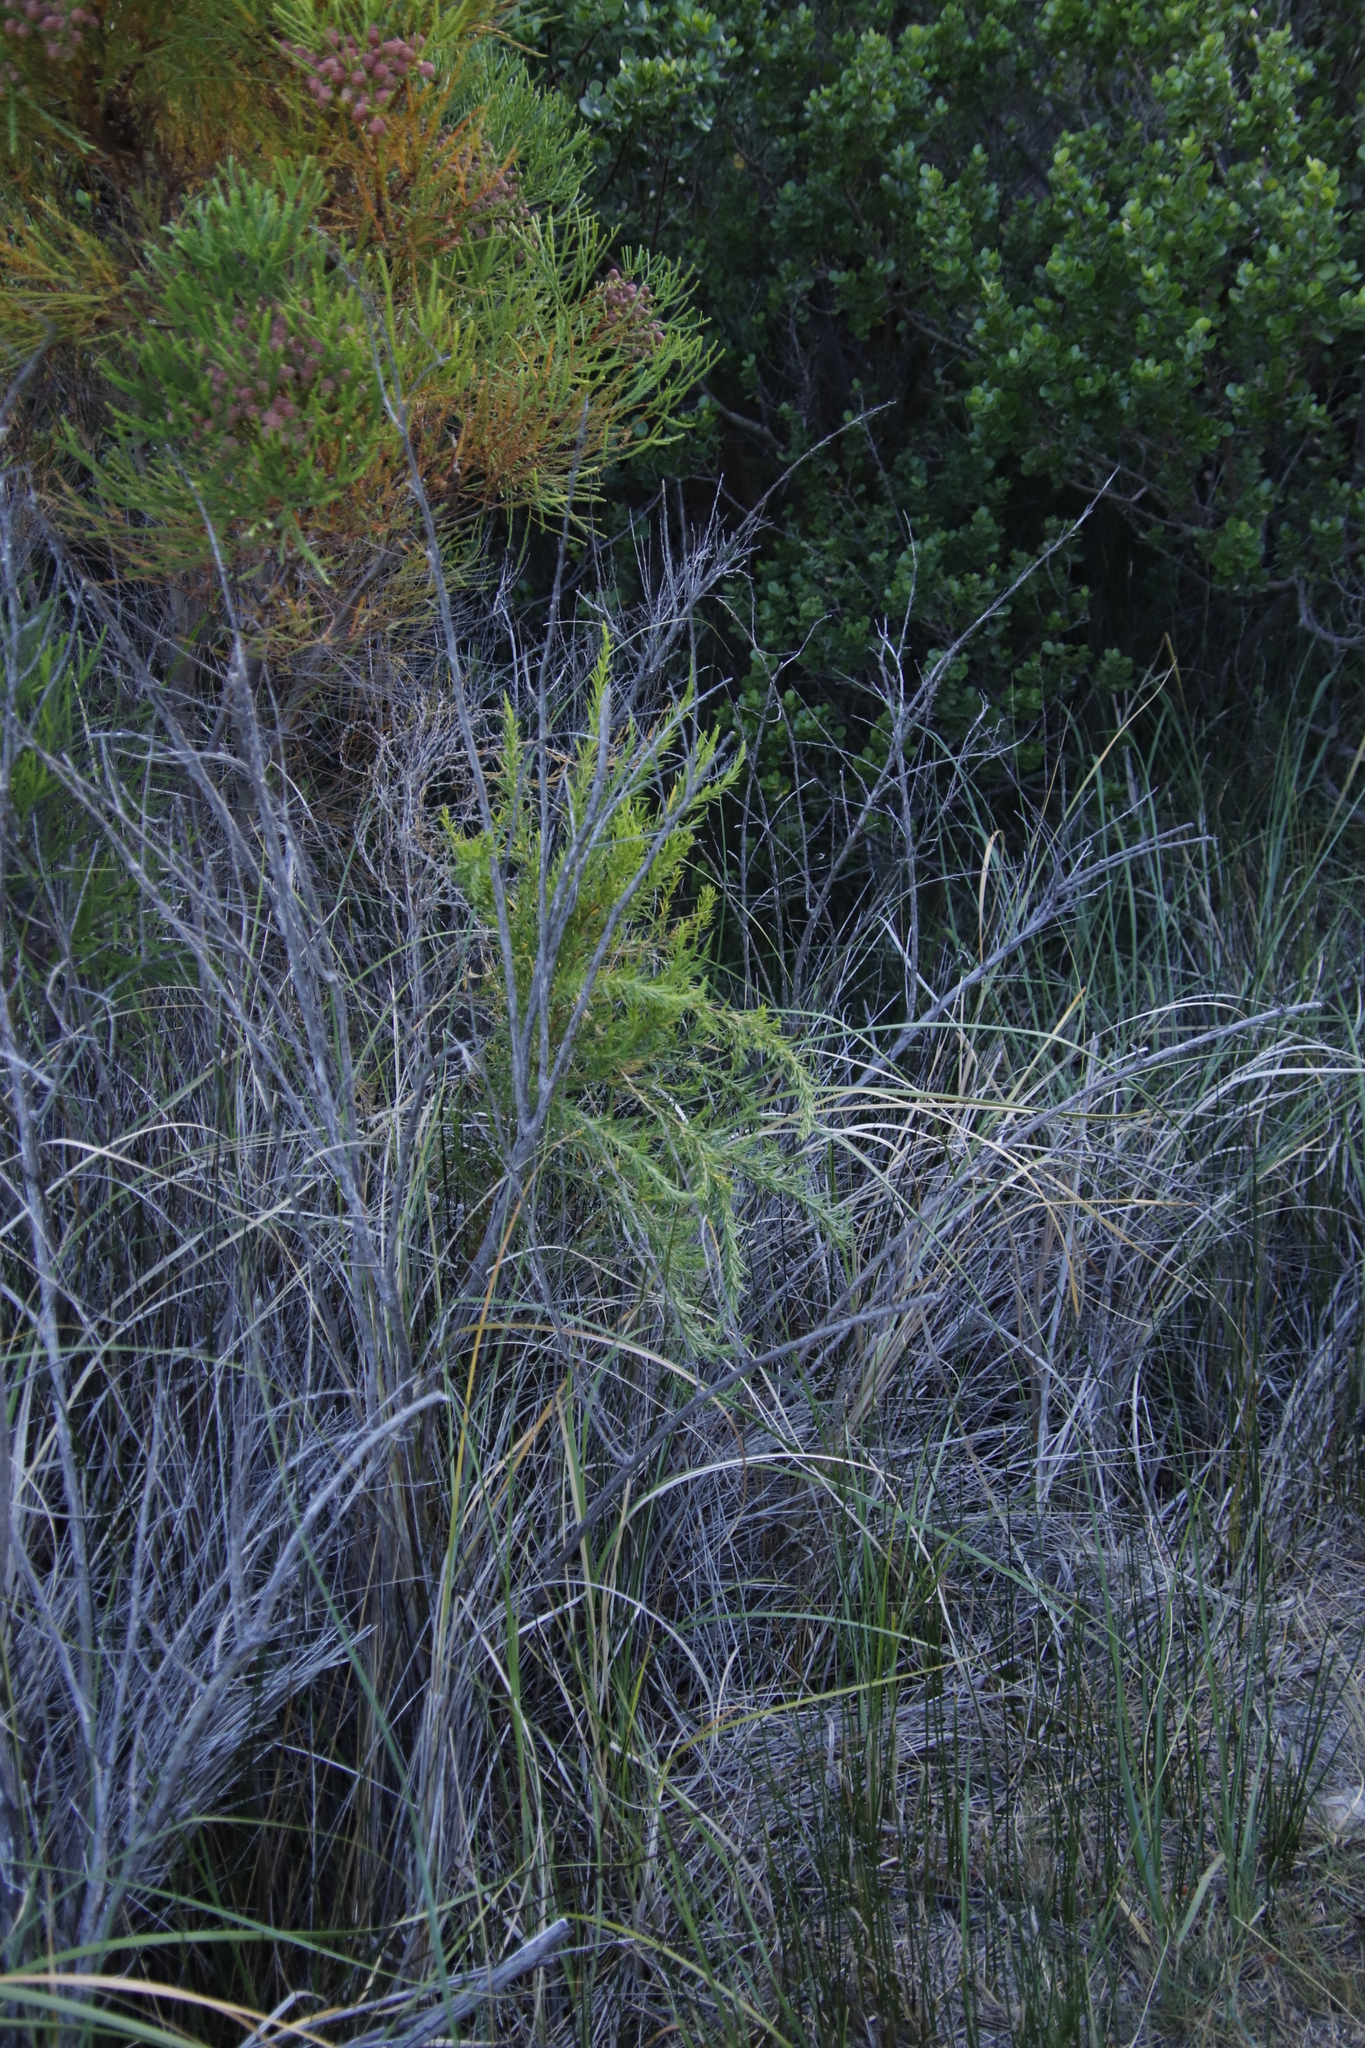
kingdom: Plantae
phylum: Tracheophyta
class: Magnoliopsida
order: Rosales
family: Rosaceae
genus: Cliffortia
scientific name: Cliffortia strobilifera
